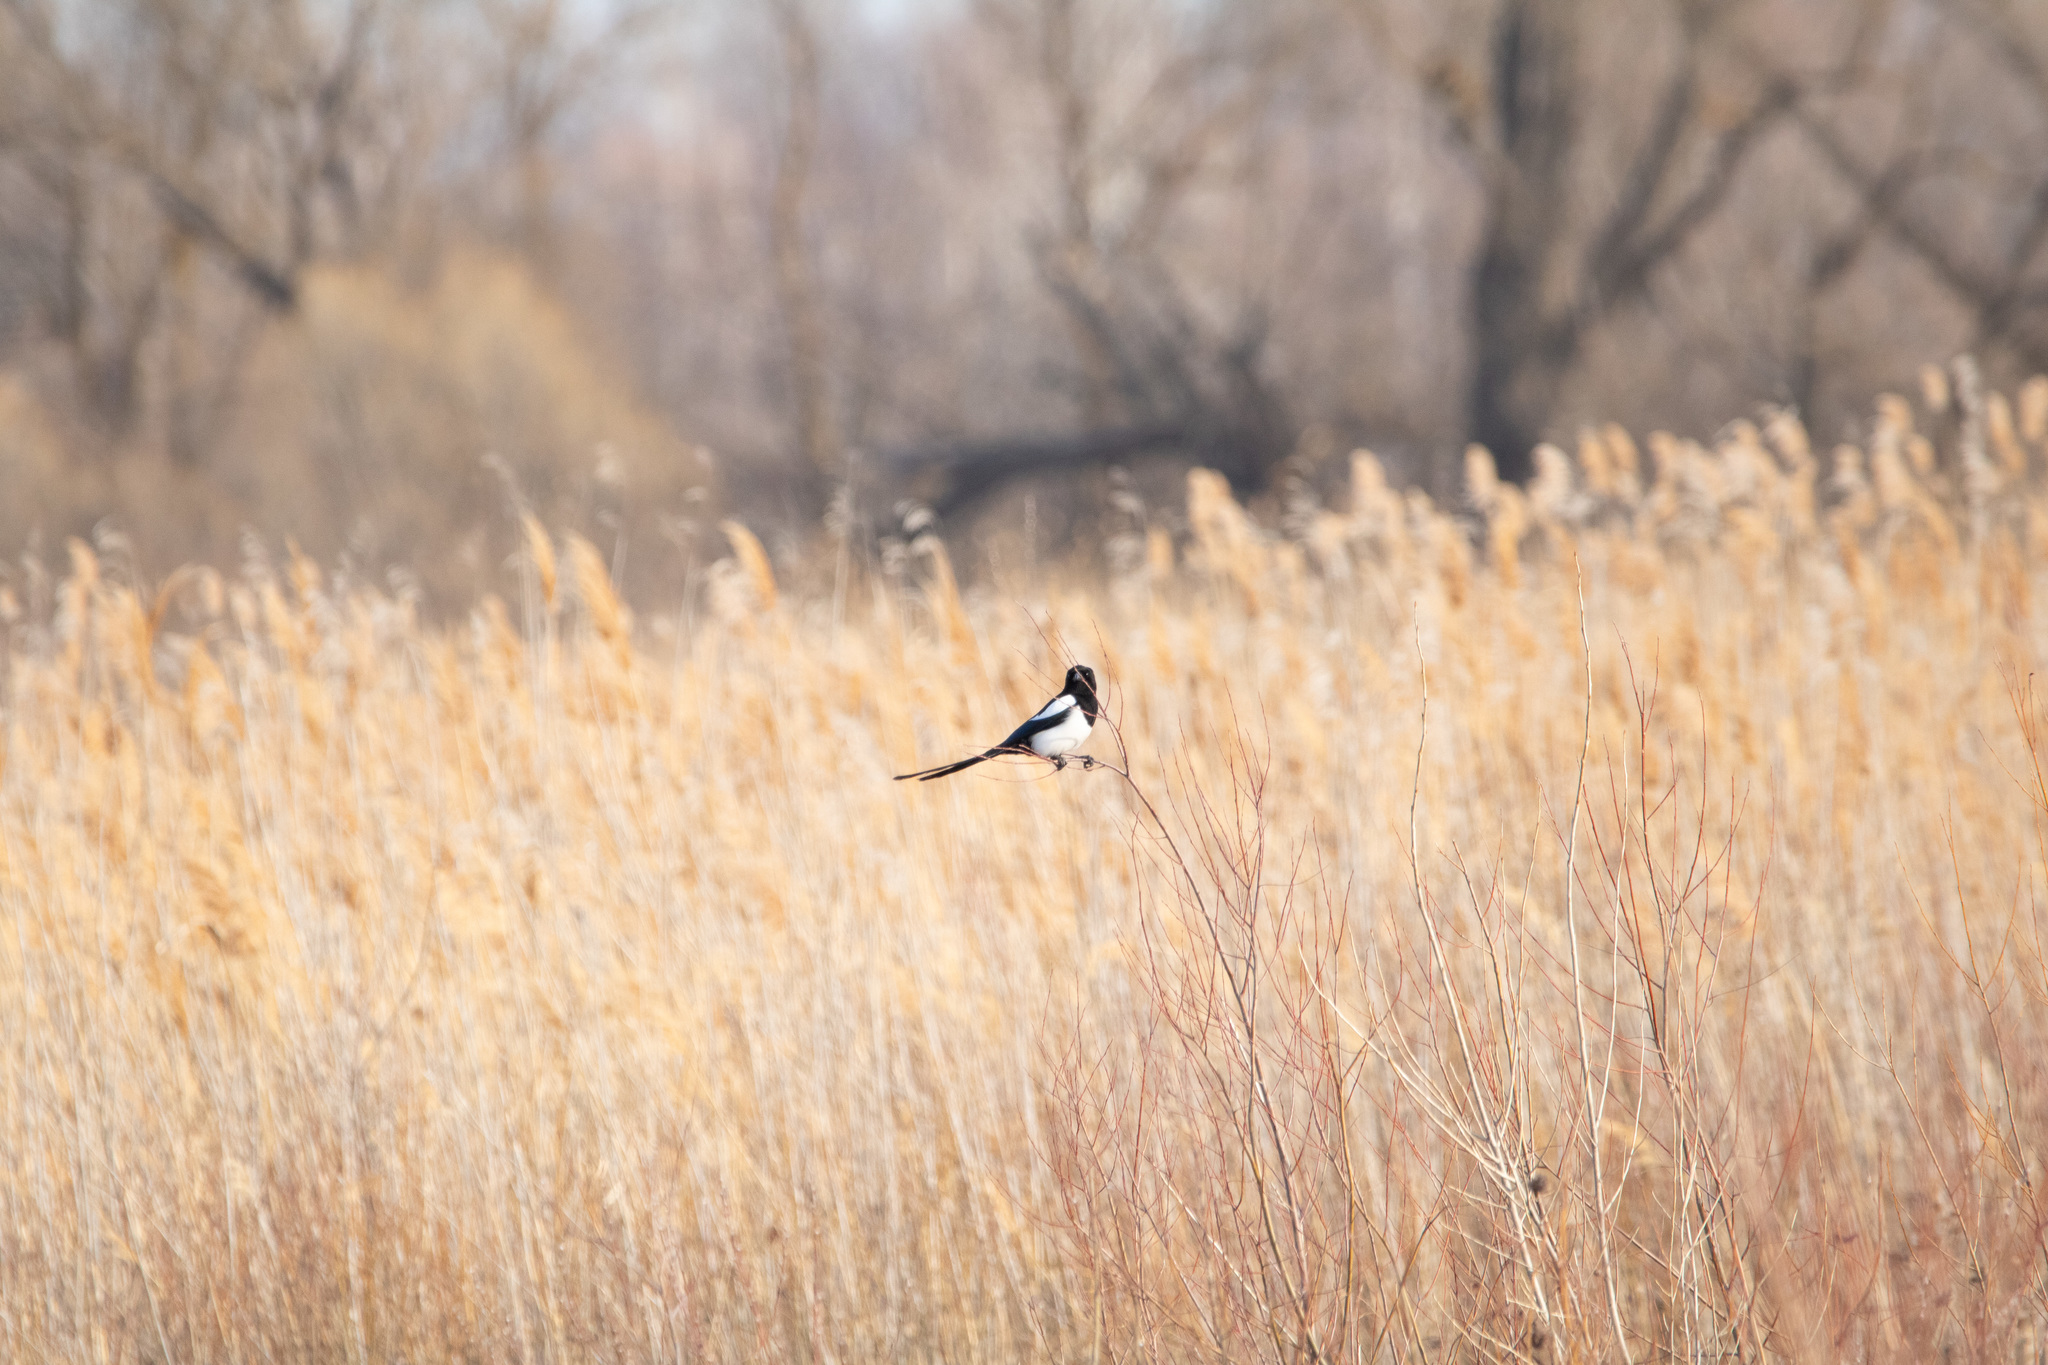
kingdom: Animalia
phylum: Chordata
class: Aves
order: Passeriformes
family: Corvidae
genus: Pica
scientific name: Pica pica
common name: Eurasian magpie
